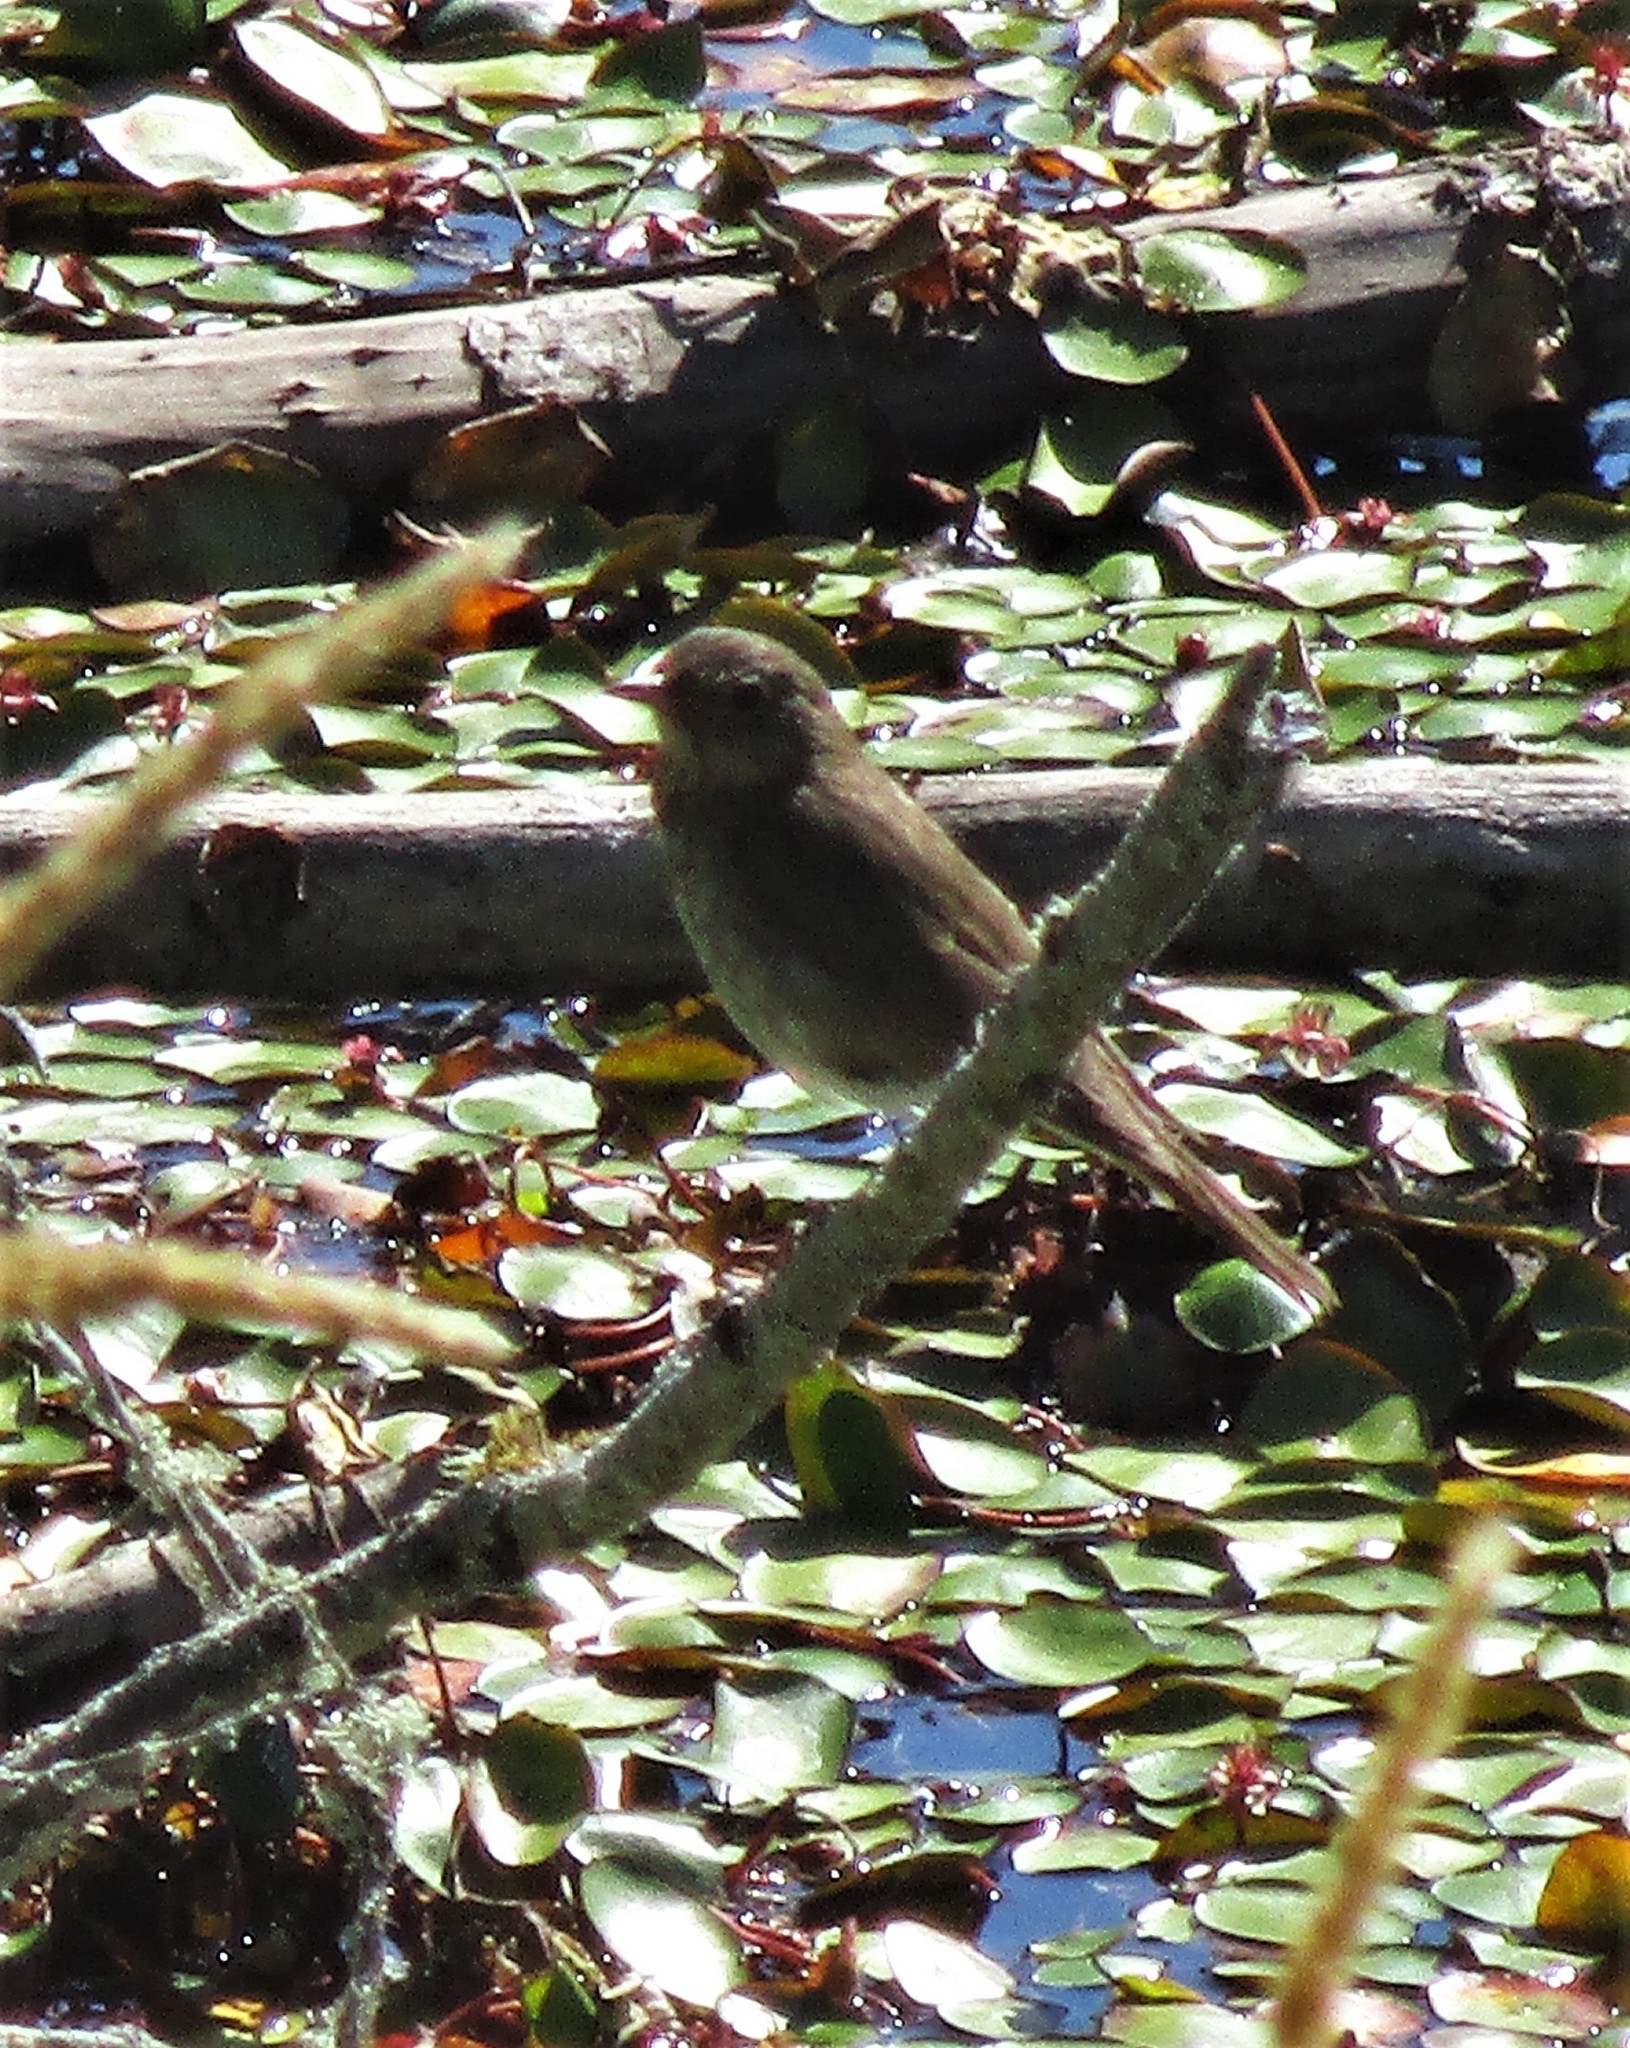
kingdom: Animalia
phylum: Chordata
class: Aves
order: Passeriformes
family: Turdidae
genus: Catharus
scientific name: Catharus ustulatus
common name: Swainson's thrush
